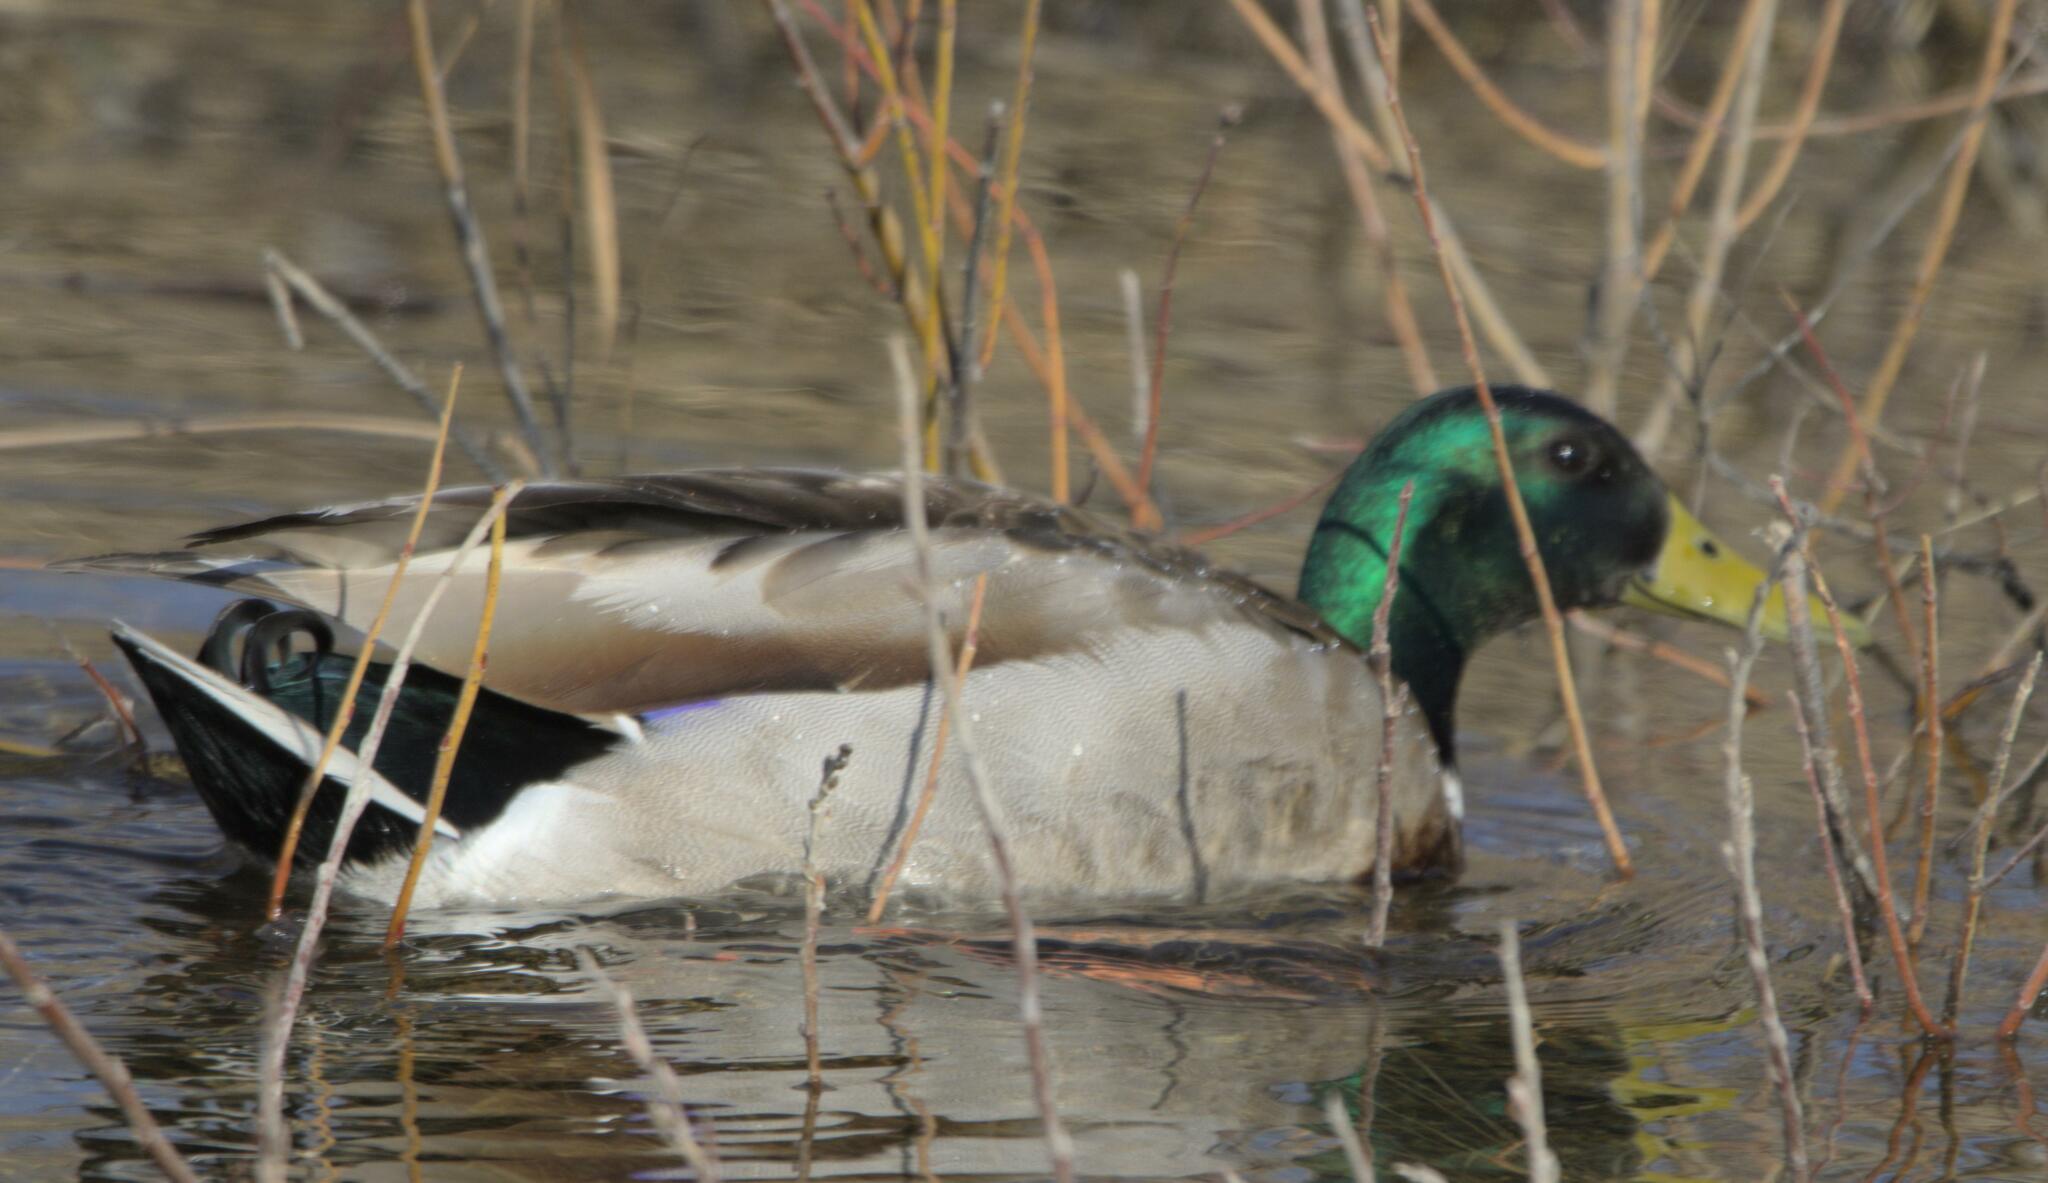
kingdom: Animalia
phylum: Chordata
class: Aves
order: Anseriformes
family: Anatidae
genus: Anas
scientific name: Anas platyrhynchos
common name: Mallard
